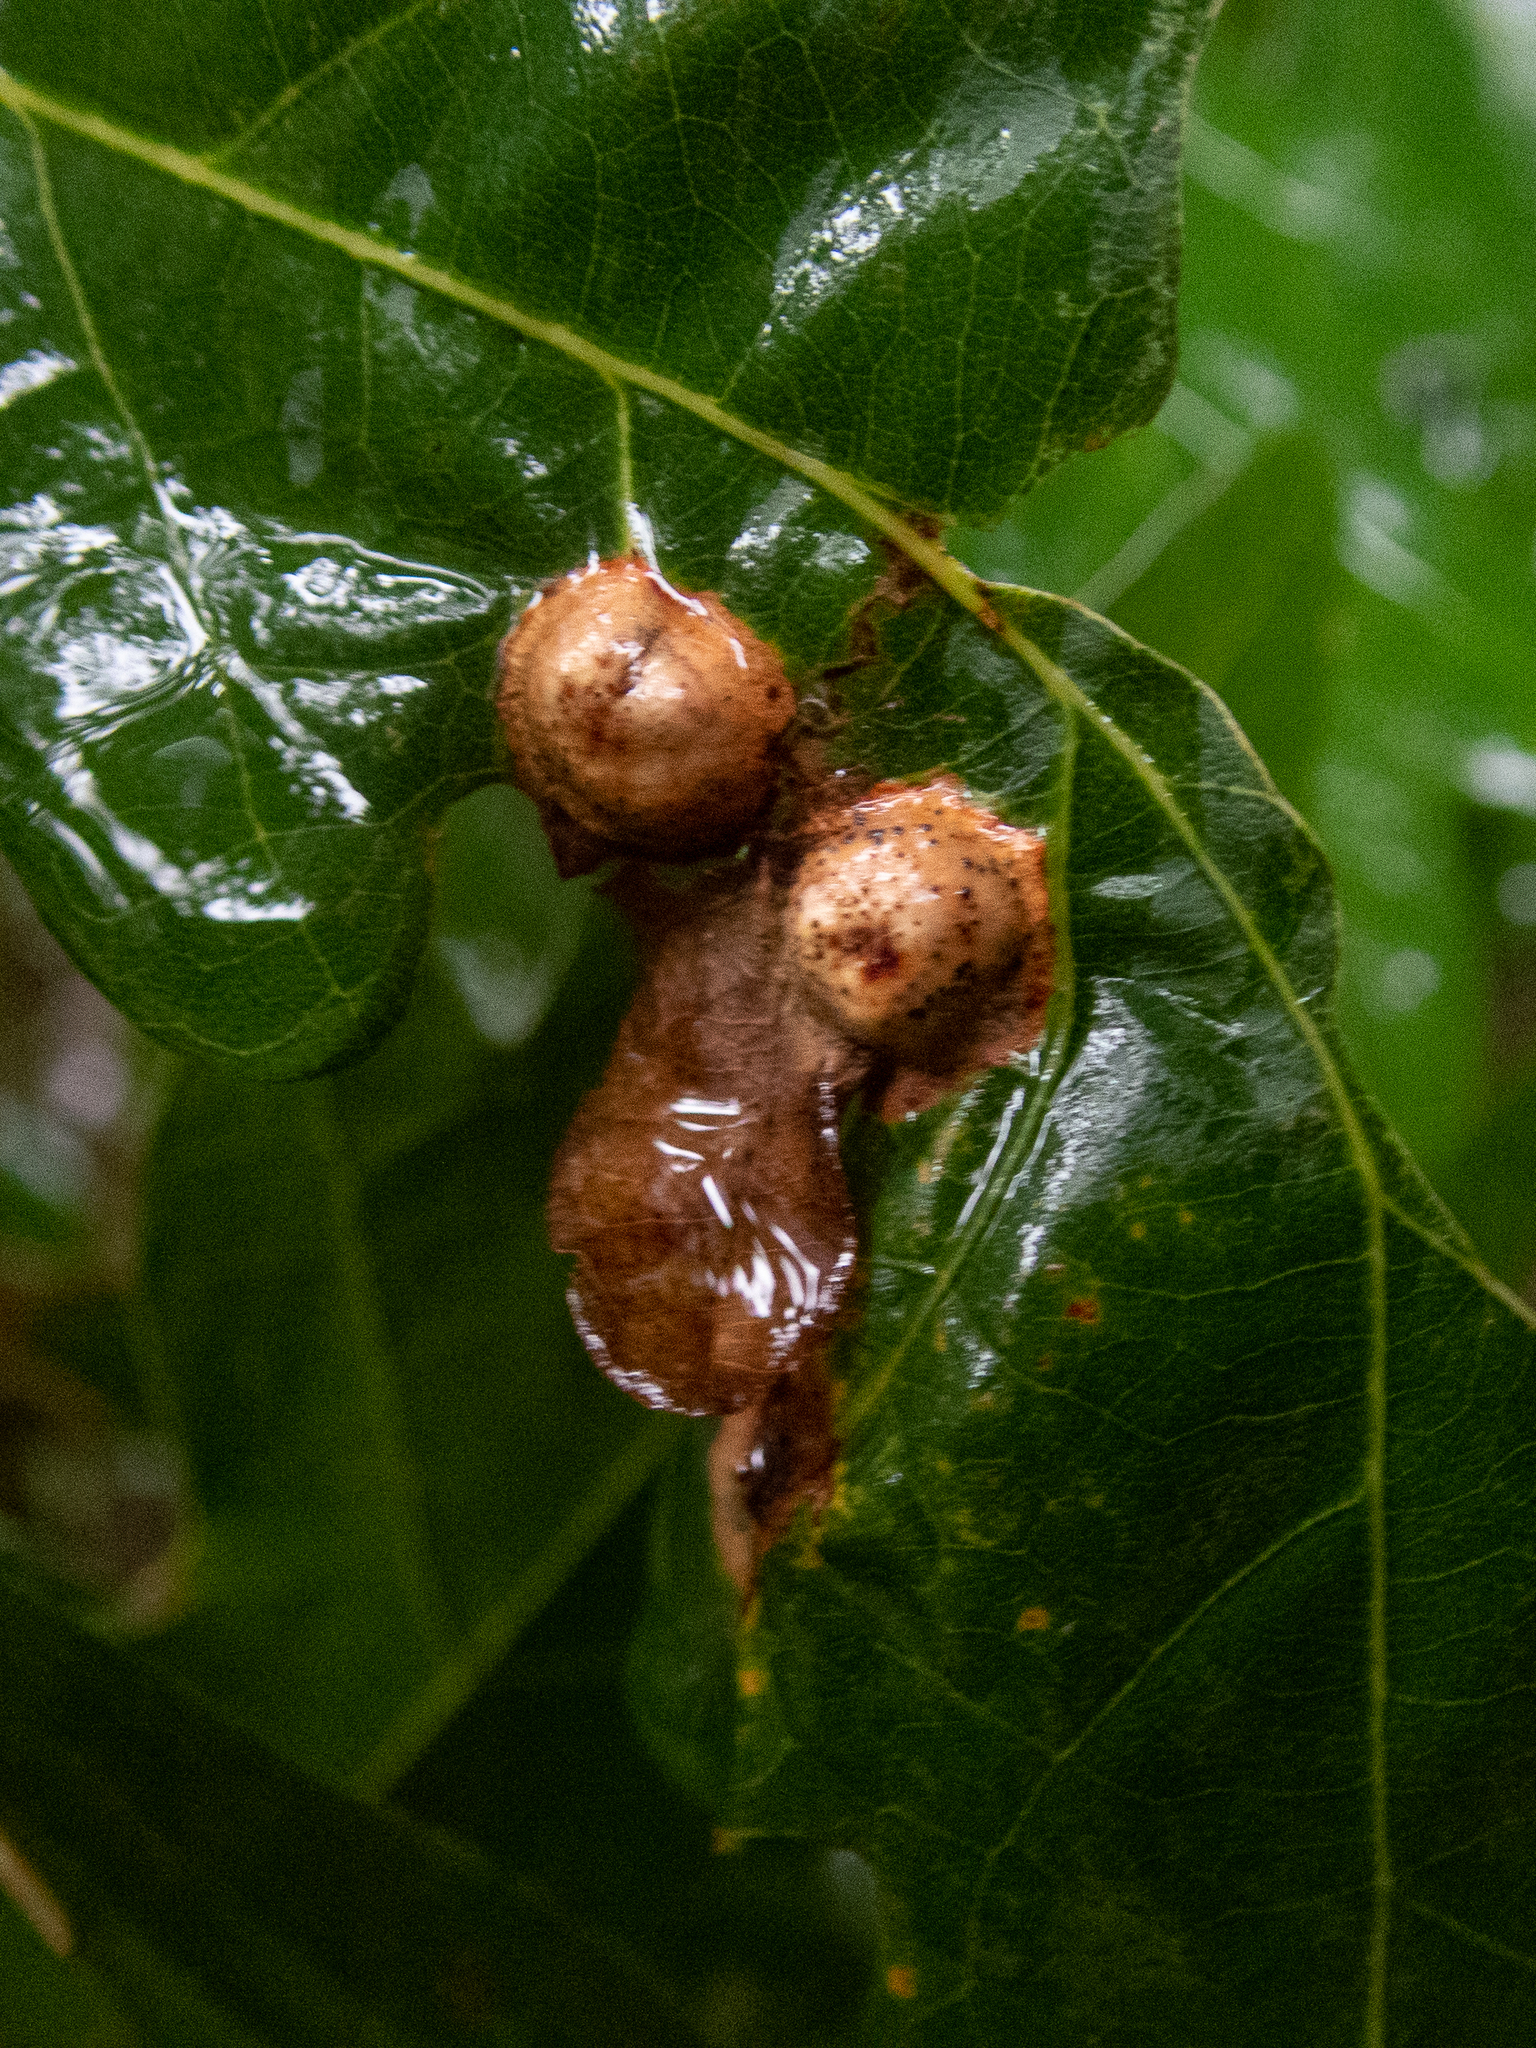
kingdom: Animalia
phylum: Arthropoda
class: Insecta
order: Hymenoptera
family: Cynipidae
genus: Callirhytis
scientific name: Callirhytis
